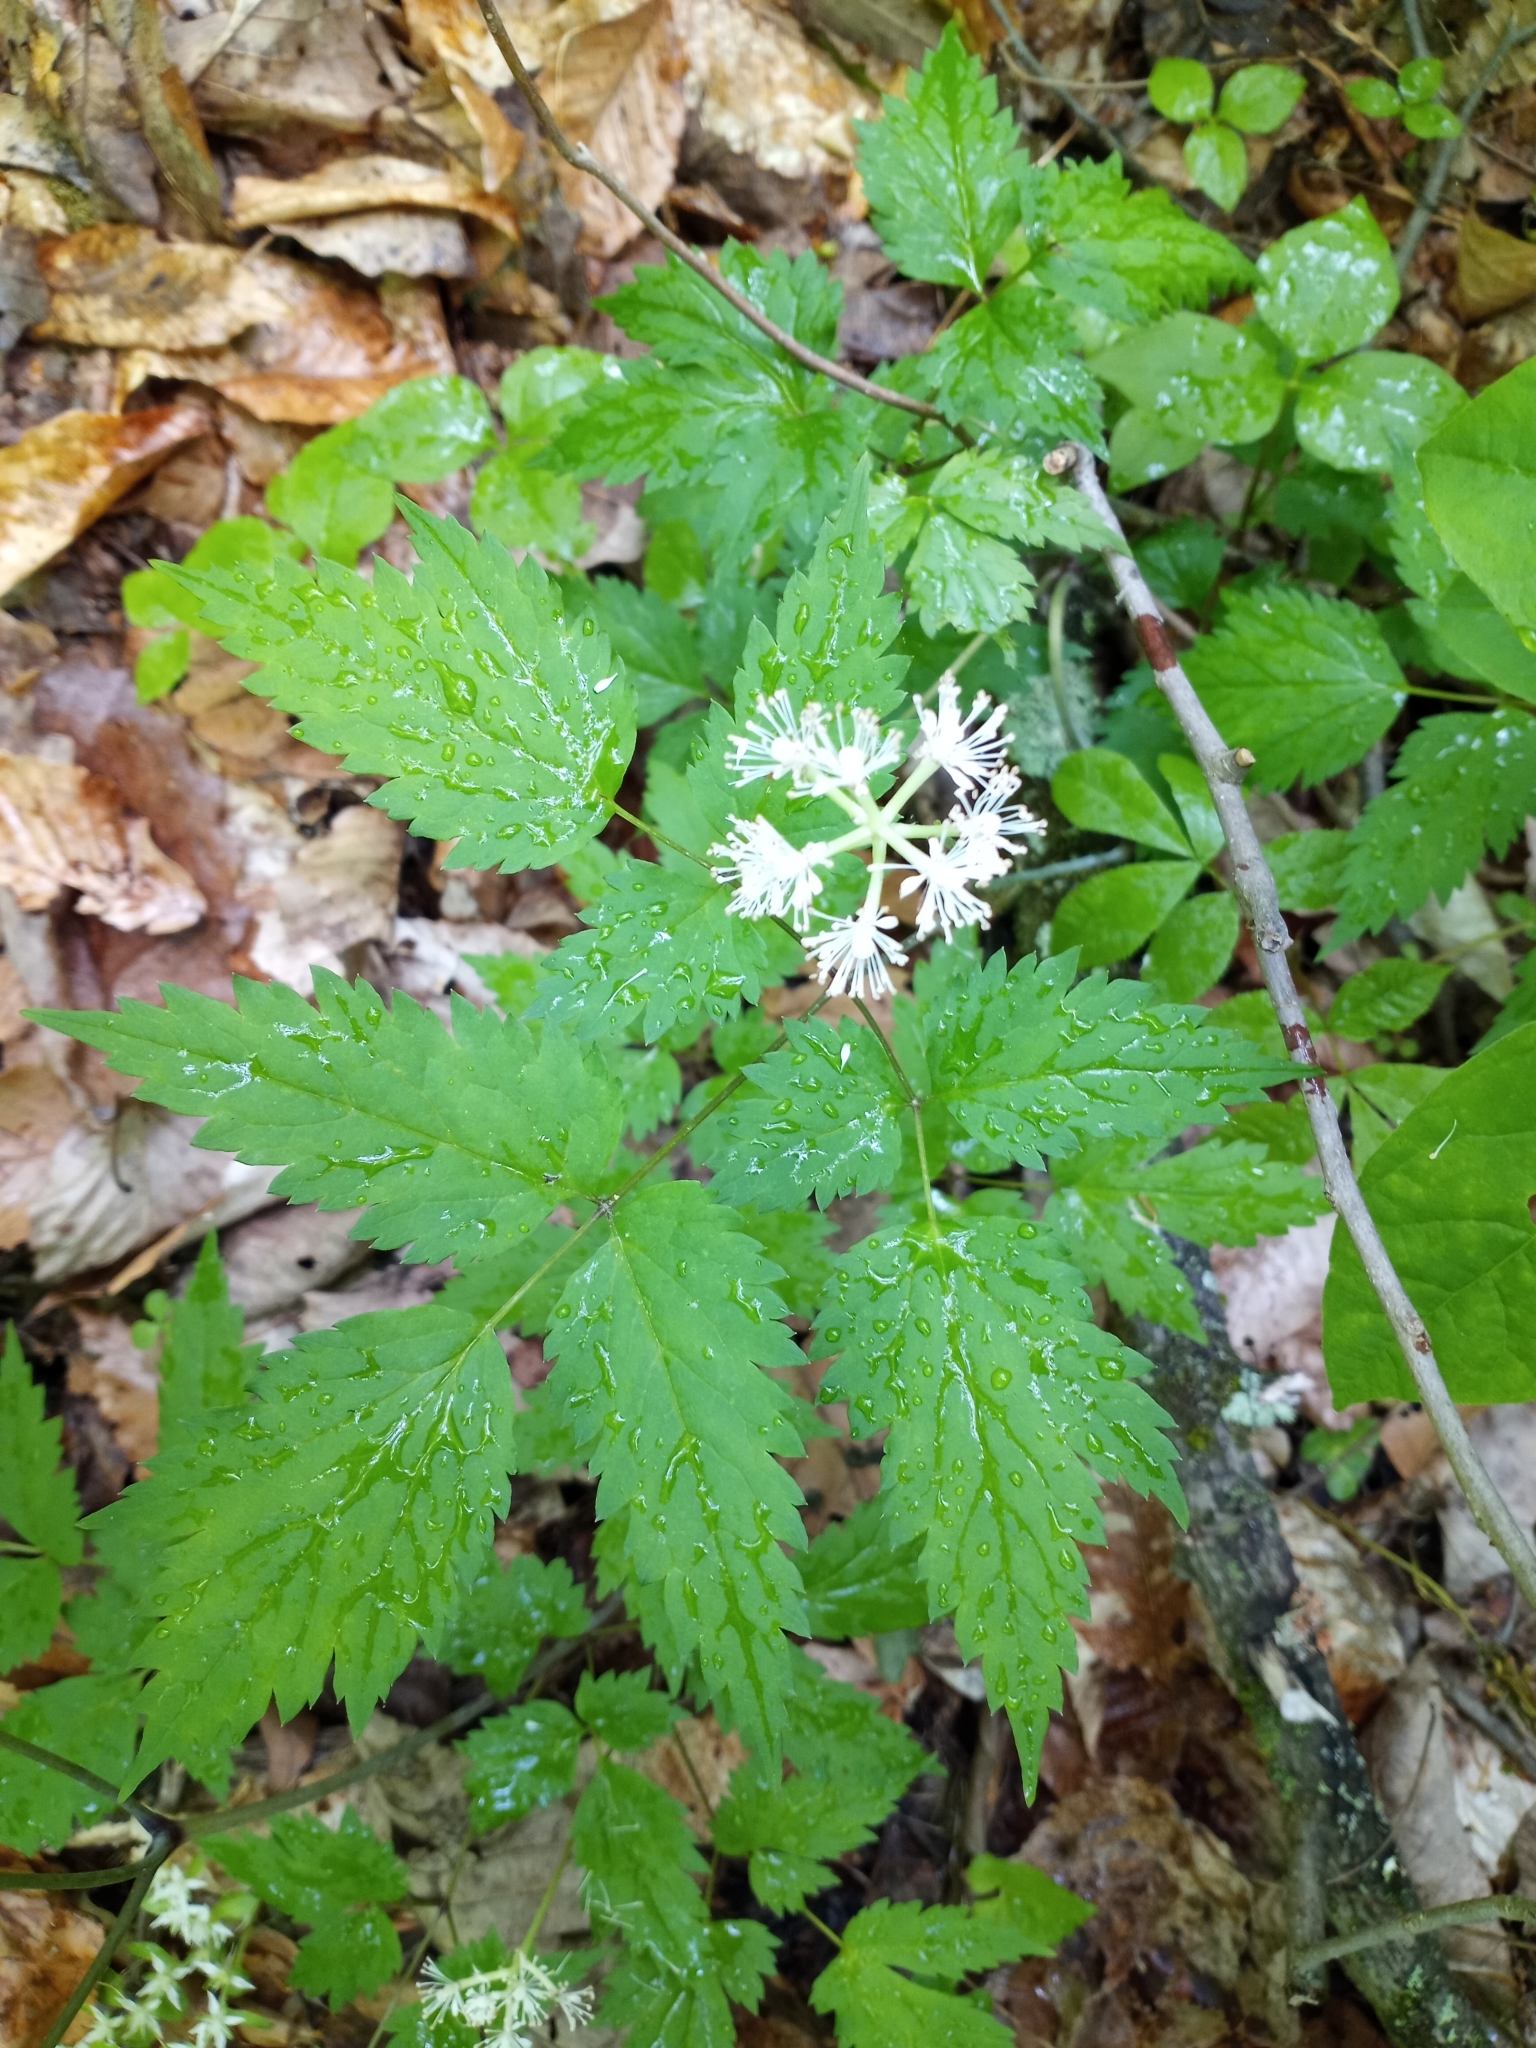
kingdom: Plantae
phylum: Tracheophyta
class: Magnoliopsida
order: Ranunculales
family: Ranunculaceae
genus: Actaea
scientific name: Actaea pachypoda
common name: Doll's-eyes
